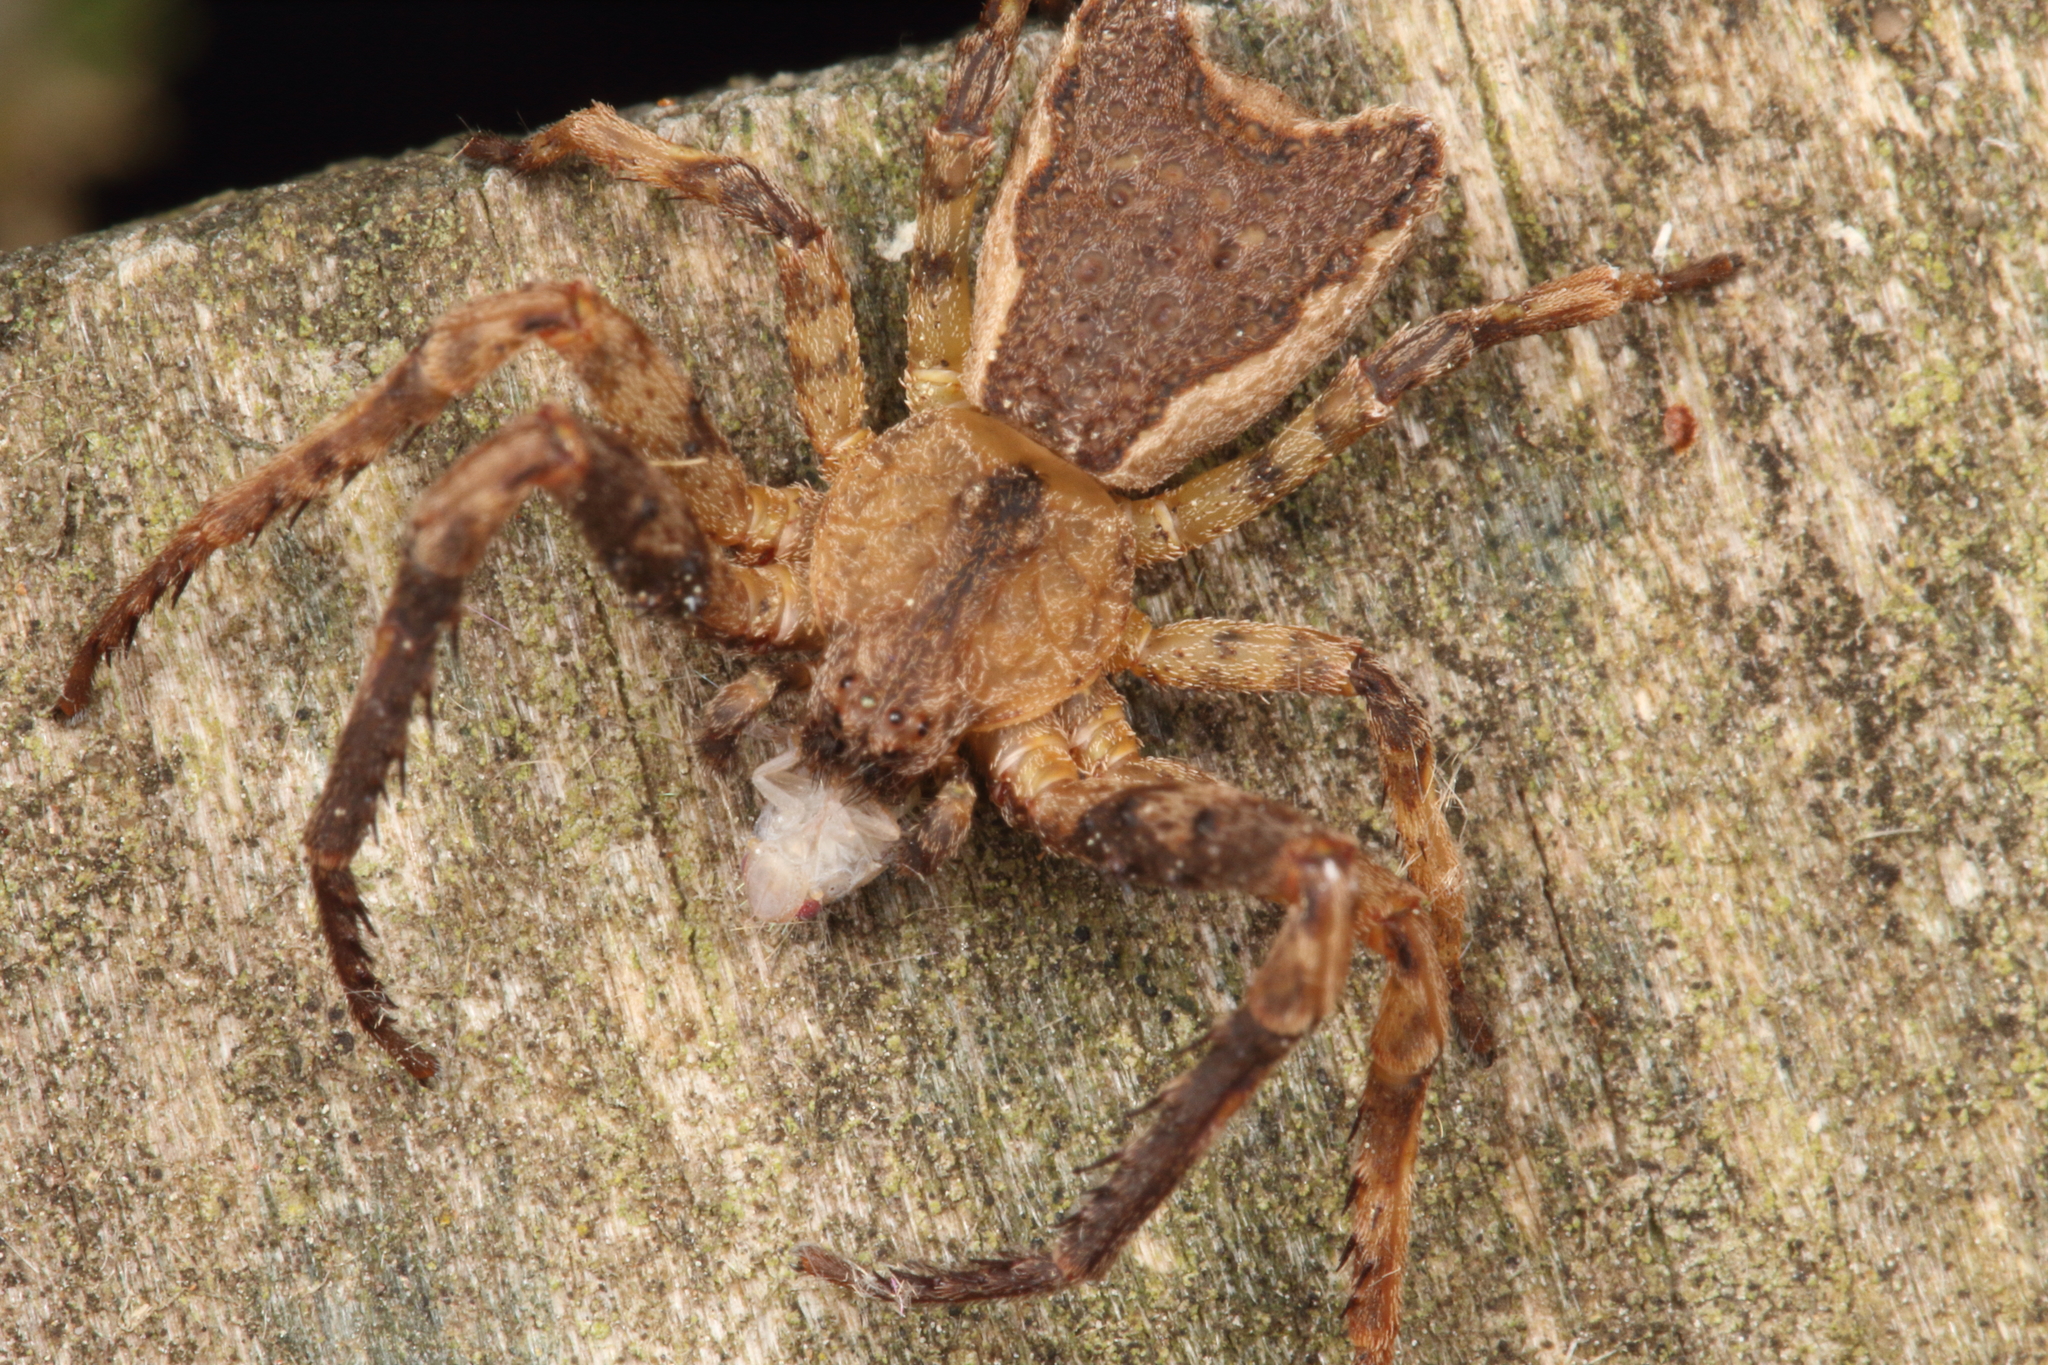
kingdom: Animalia
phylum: Arthropoda
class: Arachnida
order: Araneae
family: Thomisidae
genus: Sidymella
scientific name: Sidymella angularis
